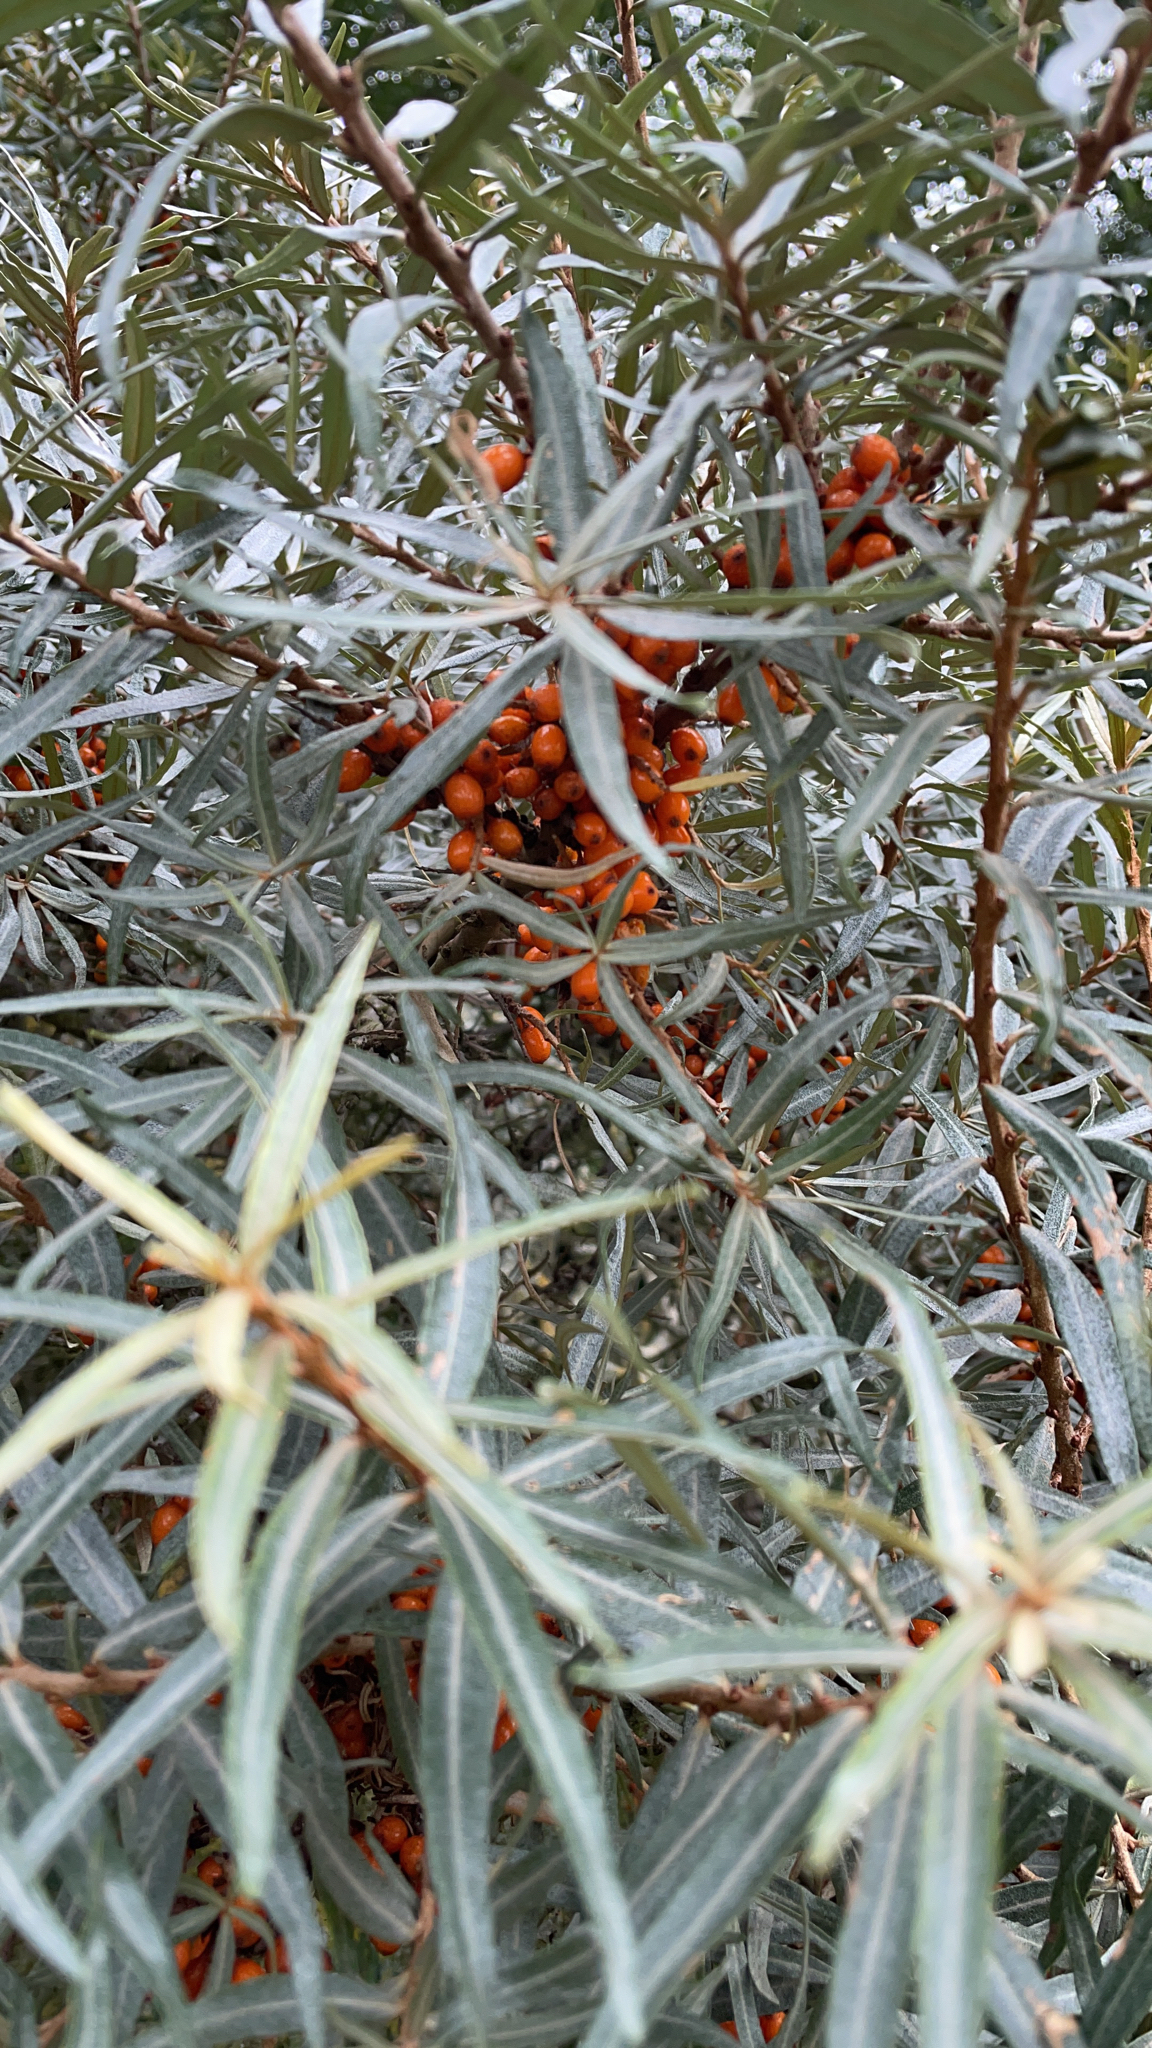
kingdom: Plantae
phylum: Tracheophyta
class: Magnoliopsida
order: Rosales
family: Elaeagnaceae
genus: Hippophae
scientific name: Hippophae rhamnoides
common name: Sea-buckthorn
